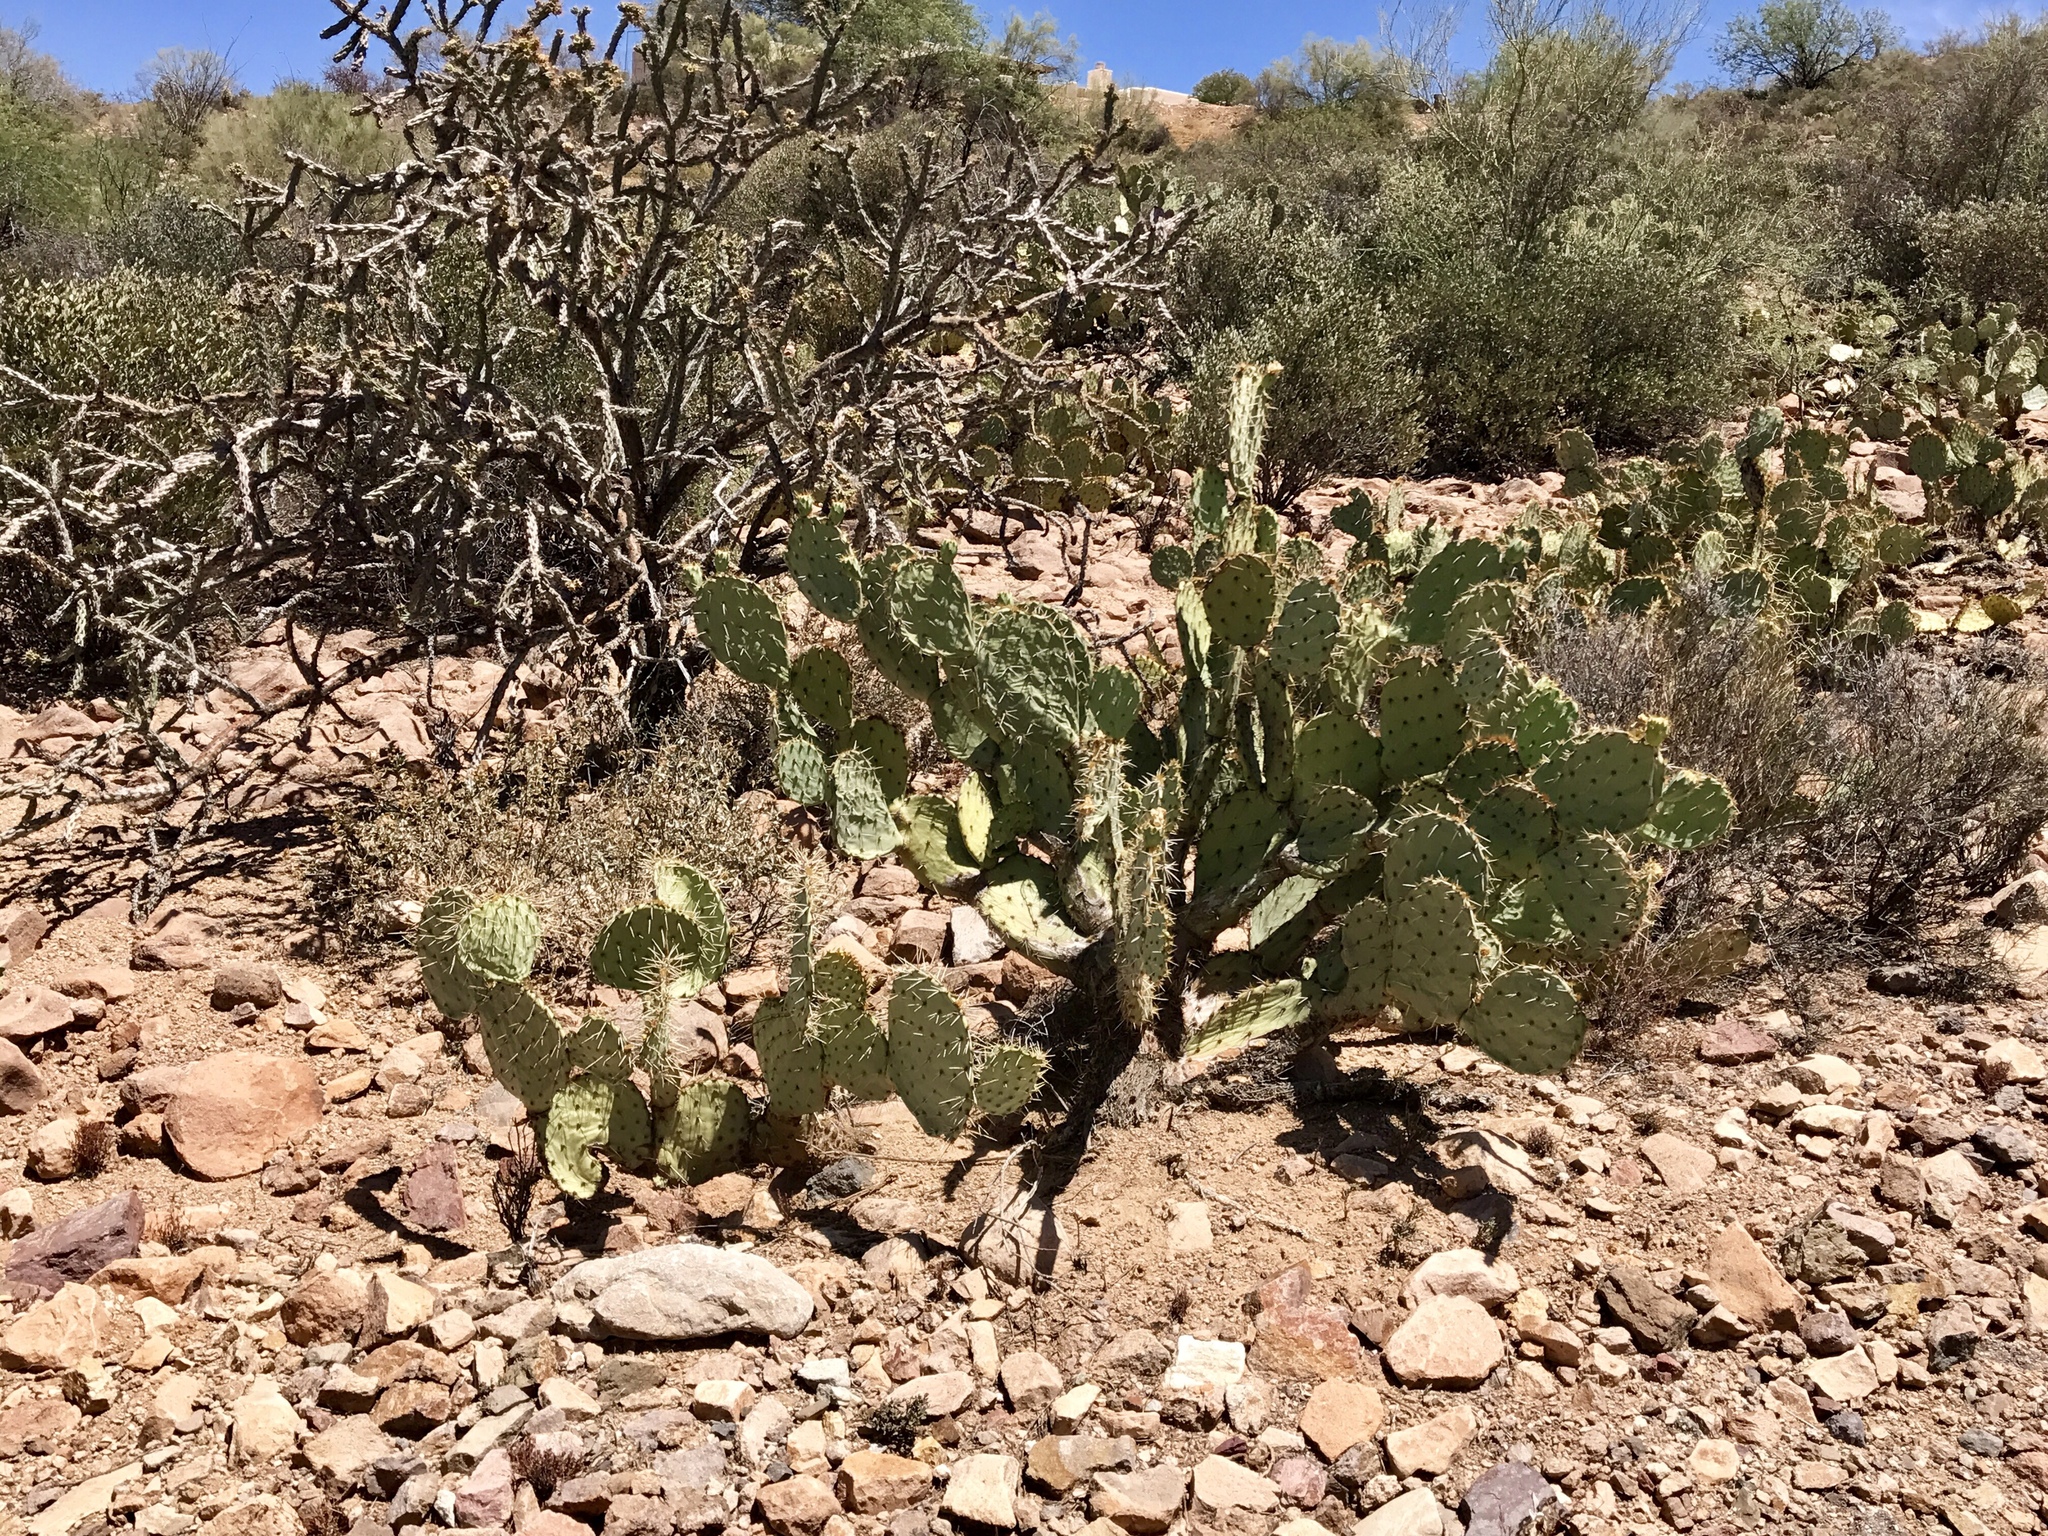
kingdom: Plantae
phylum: Tracheophyta
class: Magnoliopsida
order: Caryophyllales
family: Cactaceae
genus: Opuntia
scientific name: Opuntia engelmannii
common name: Cactus-apple
